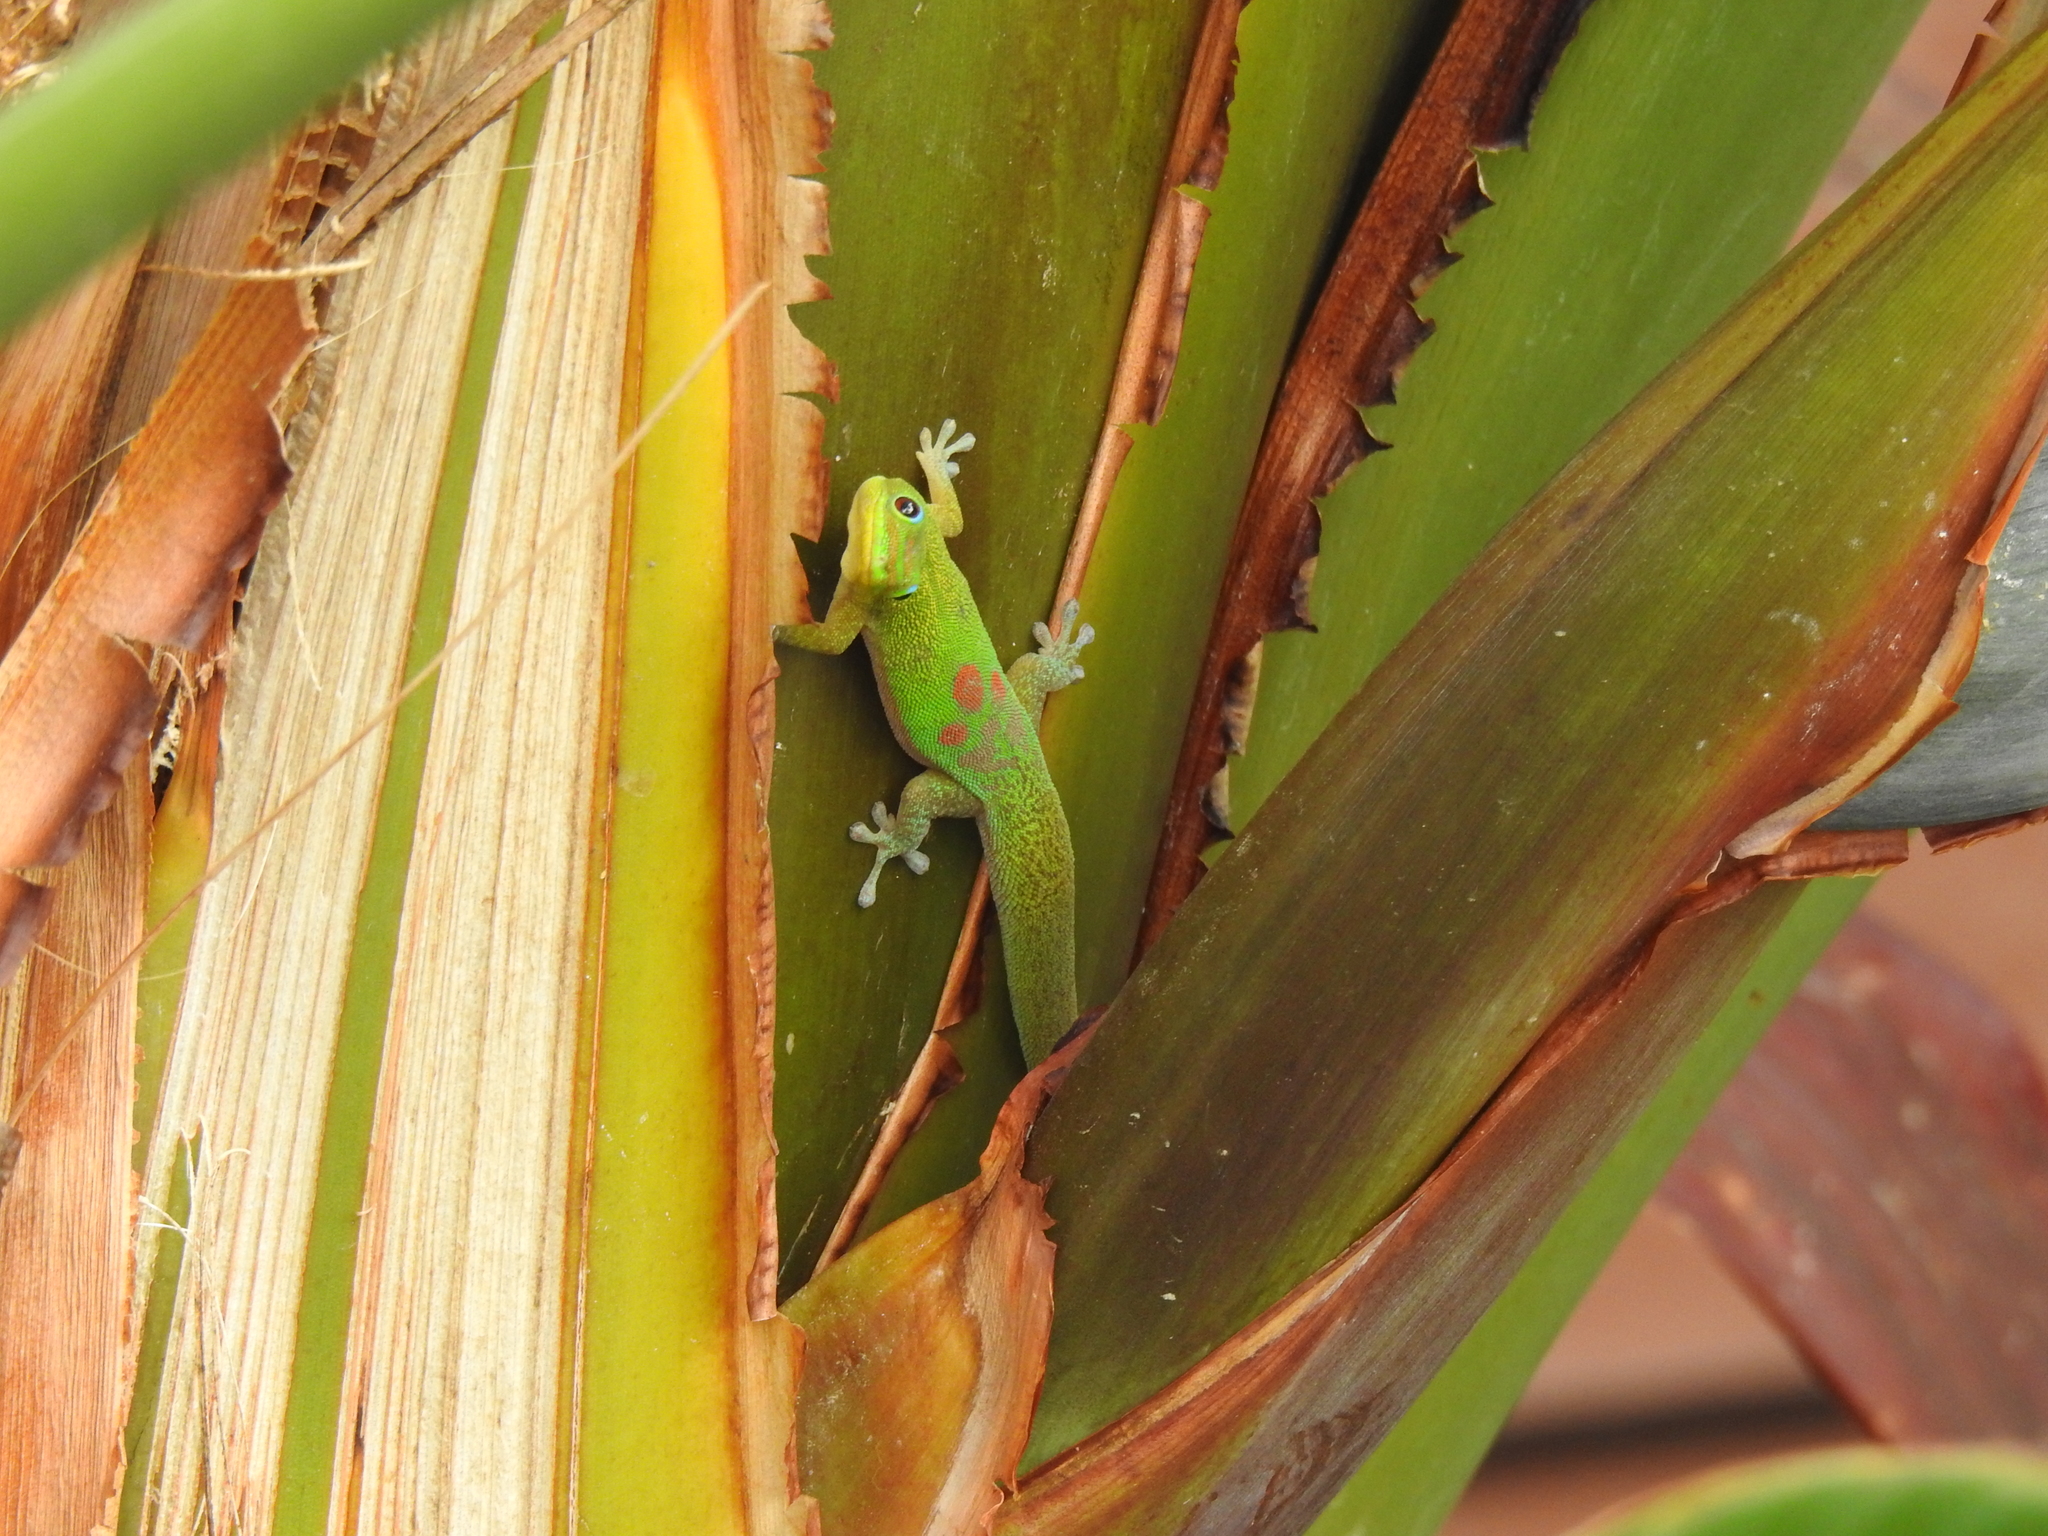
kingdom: Animalia
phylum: Chordata
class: Squamata
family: Gekkonidae
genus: Phelsuma
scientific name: Phelsuma laticauda
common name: Gold dust day gecko
